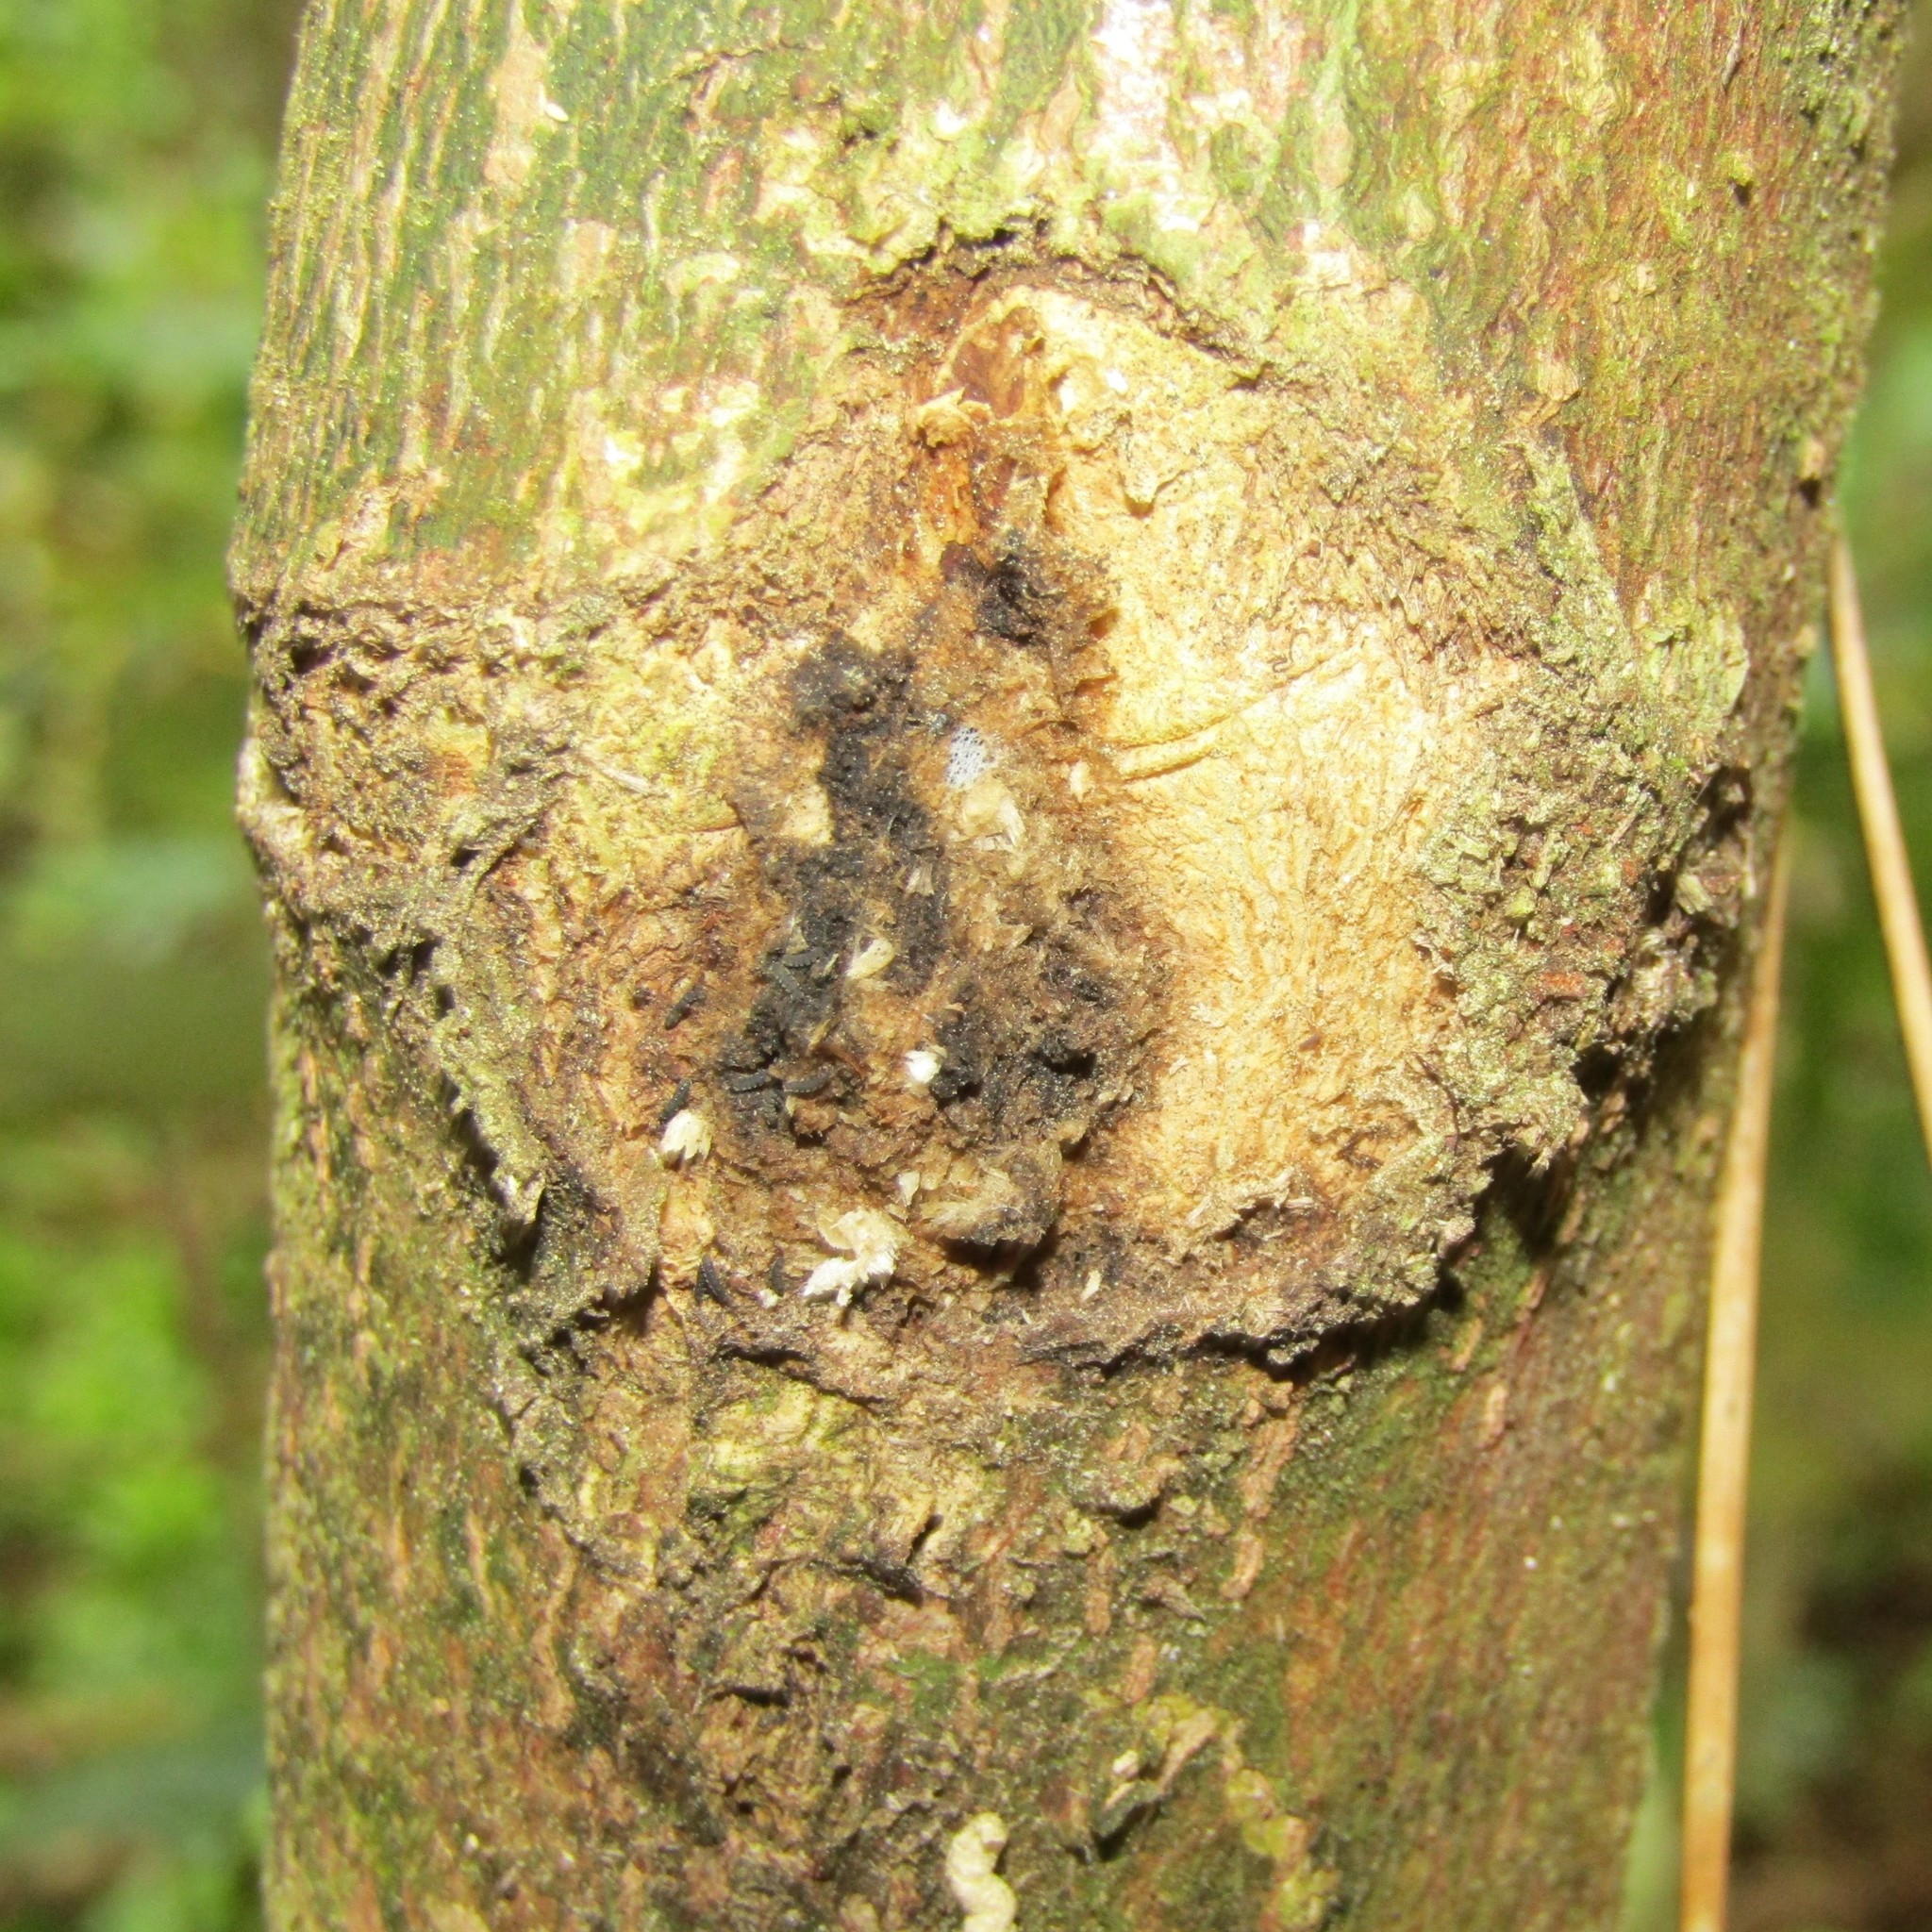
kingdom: Animalia
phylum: Arthropoda
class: Insecta
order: Lepidoptera
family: Hepialidae
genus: Aenetus
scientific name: Aenetus virescens
